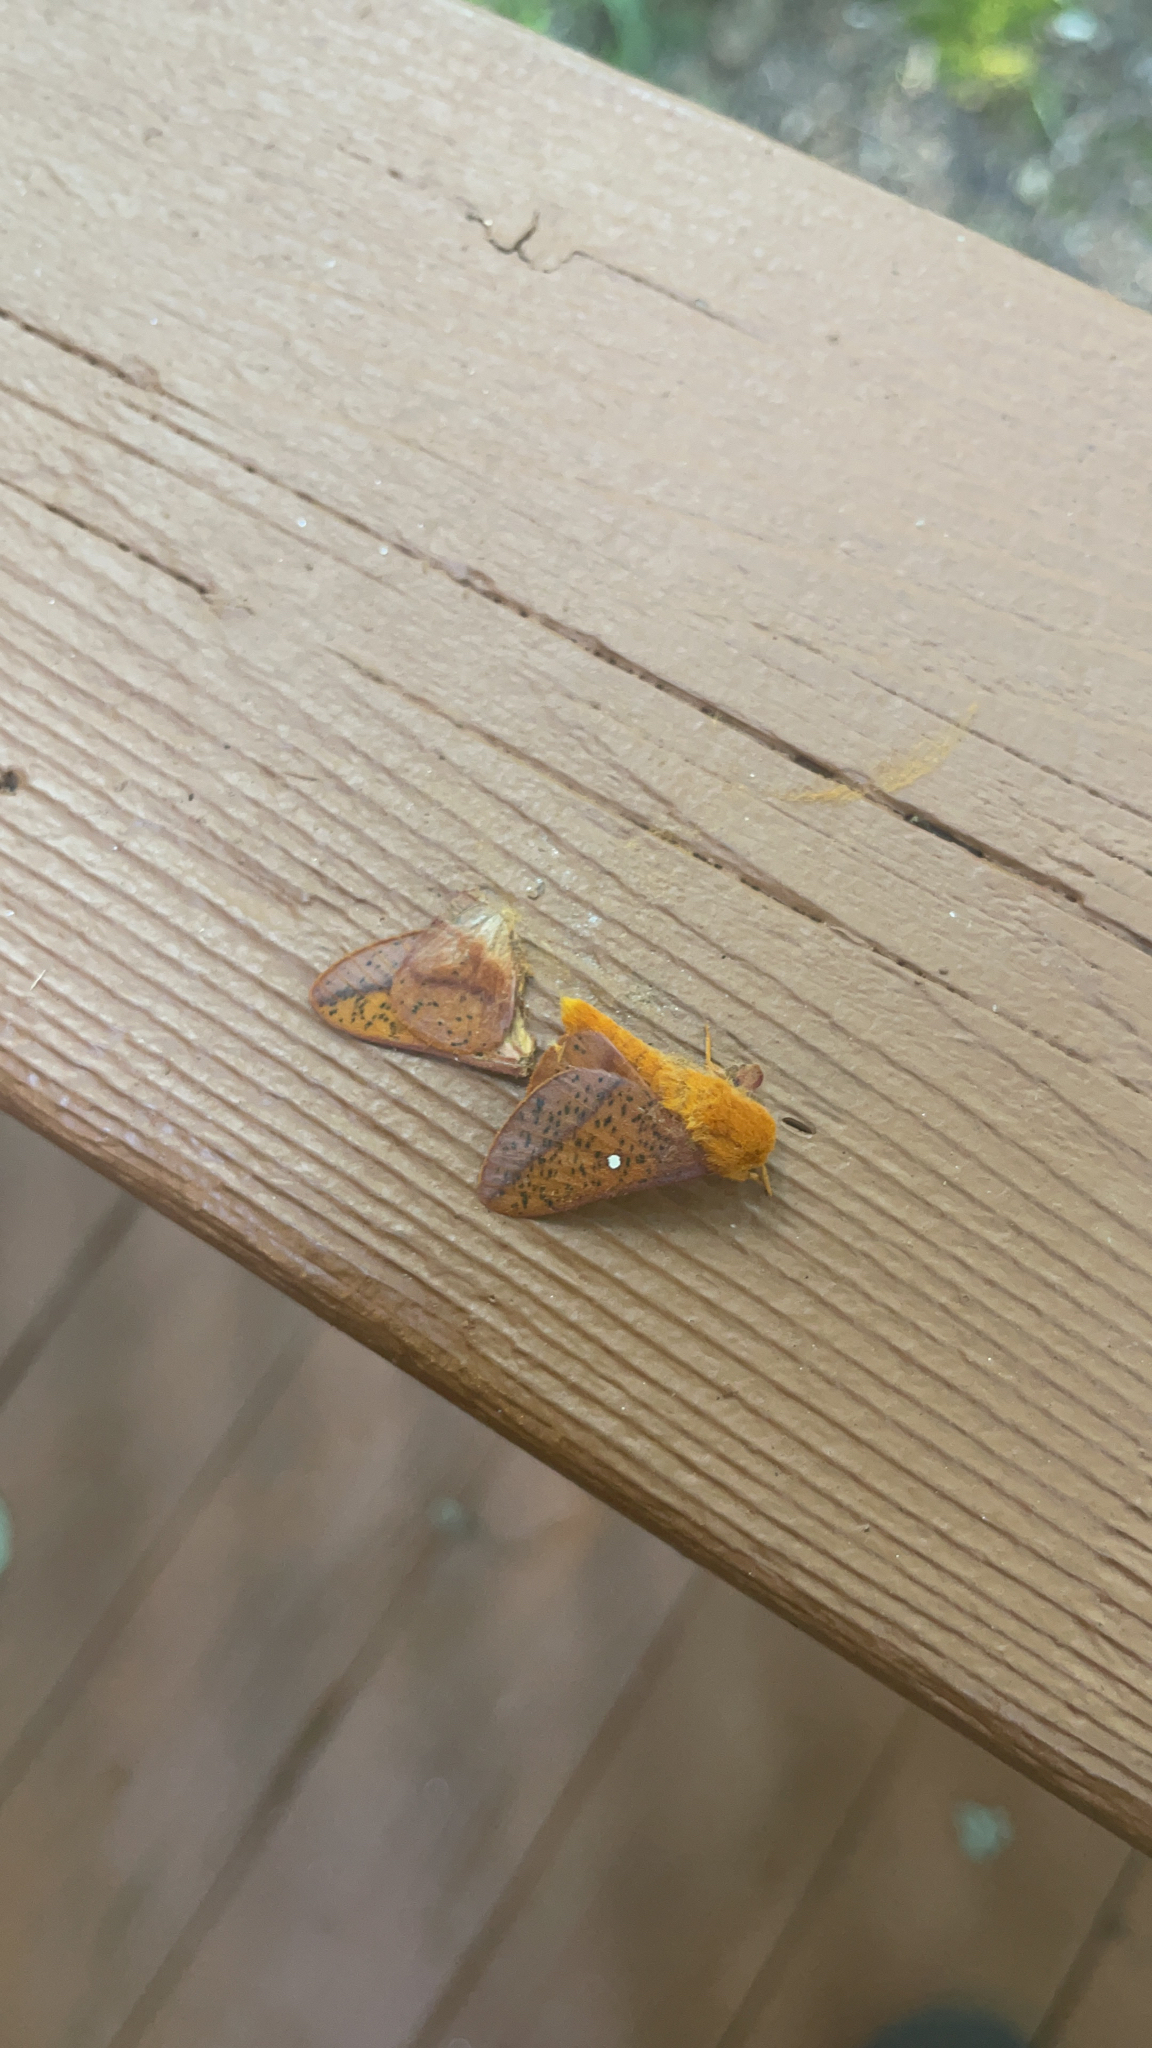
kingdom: Animalia
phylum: Arthropoda
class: Insecta
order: Lepidoptera
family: Saturniidae
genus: Anisota
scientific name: Anisota stigma
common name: Spiny oakworm moth
